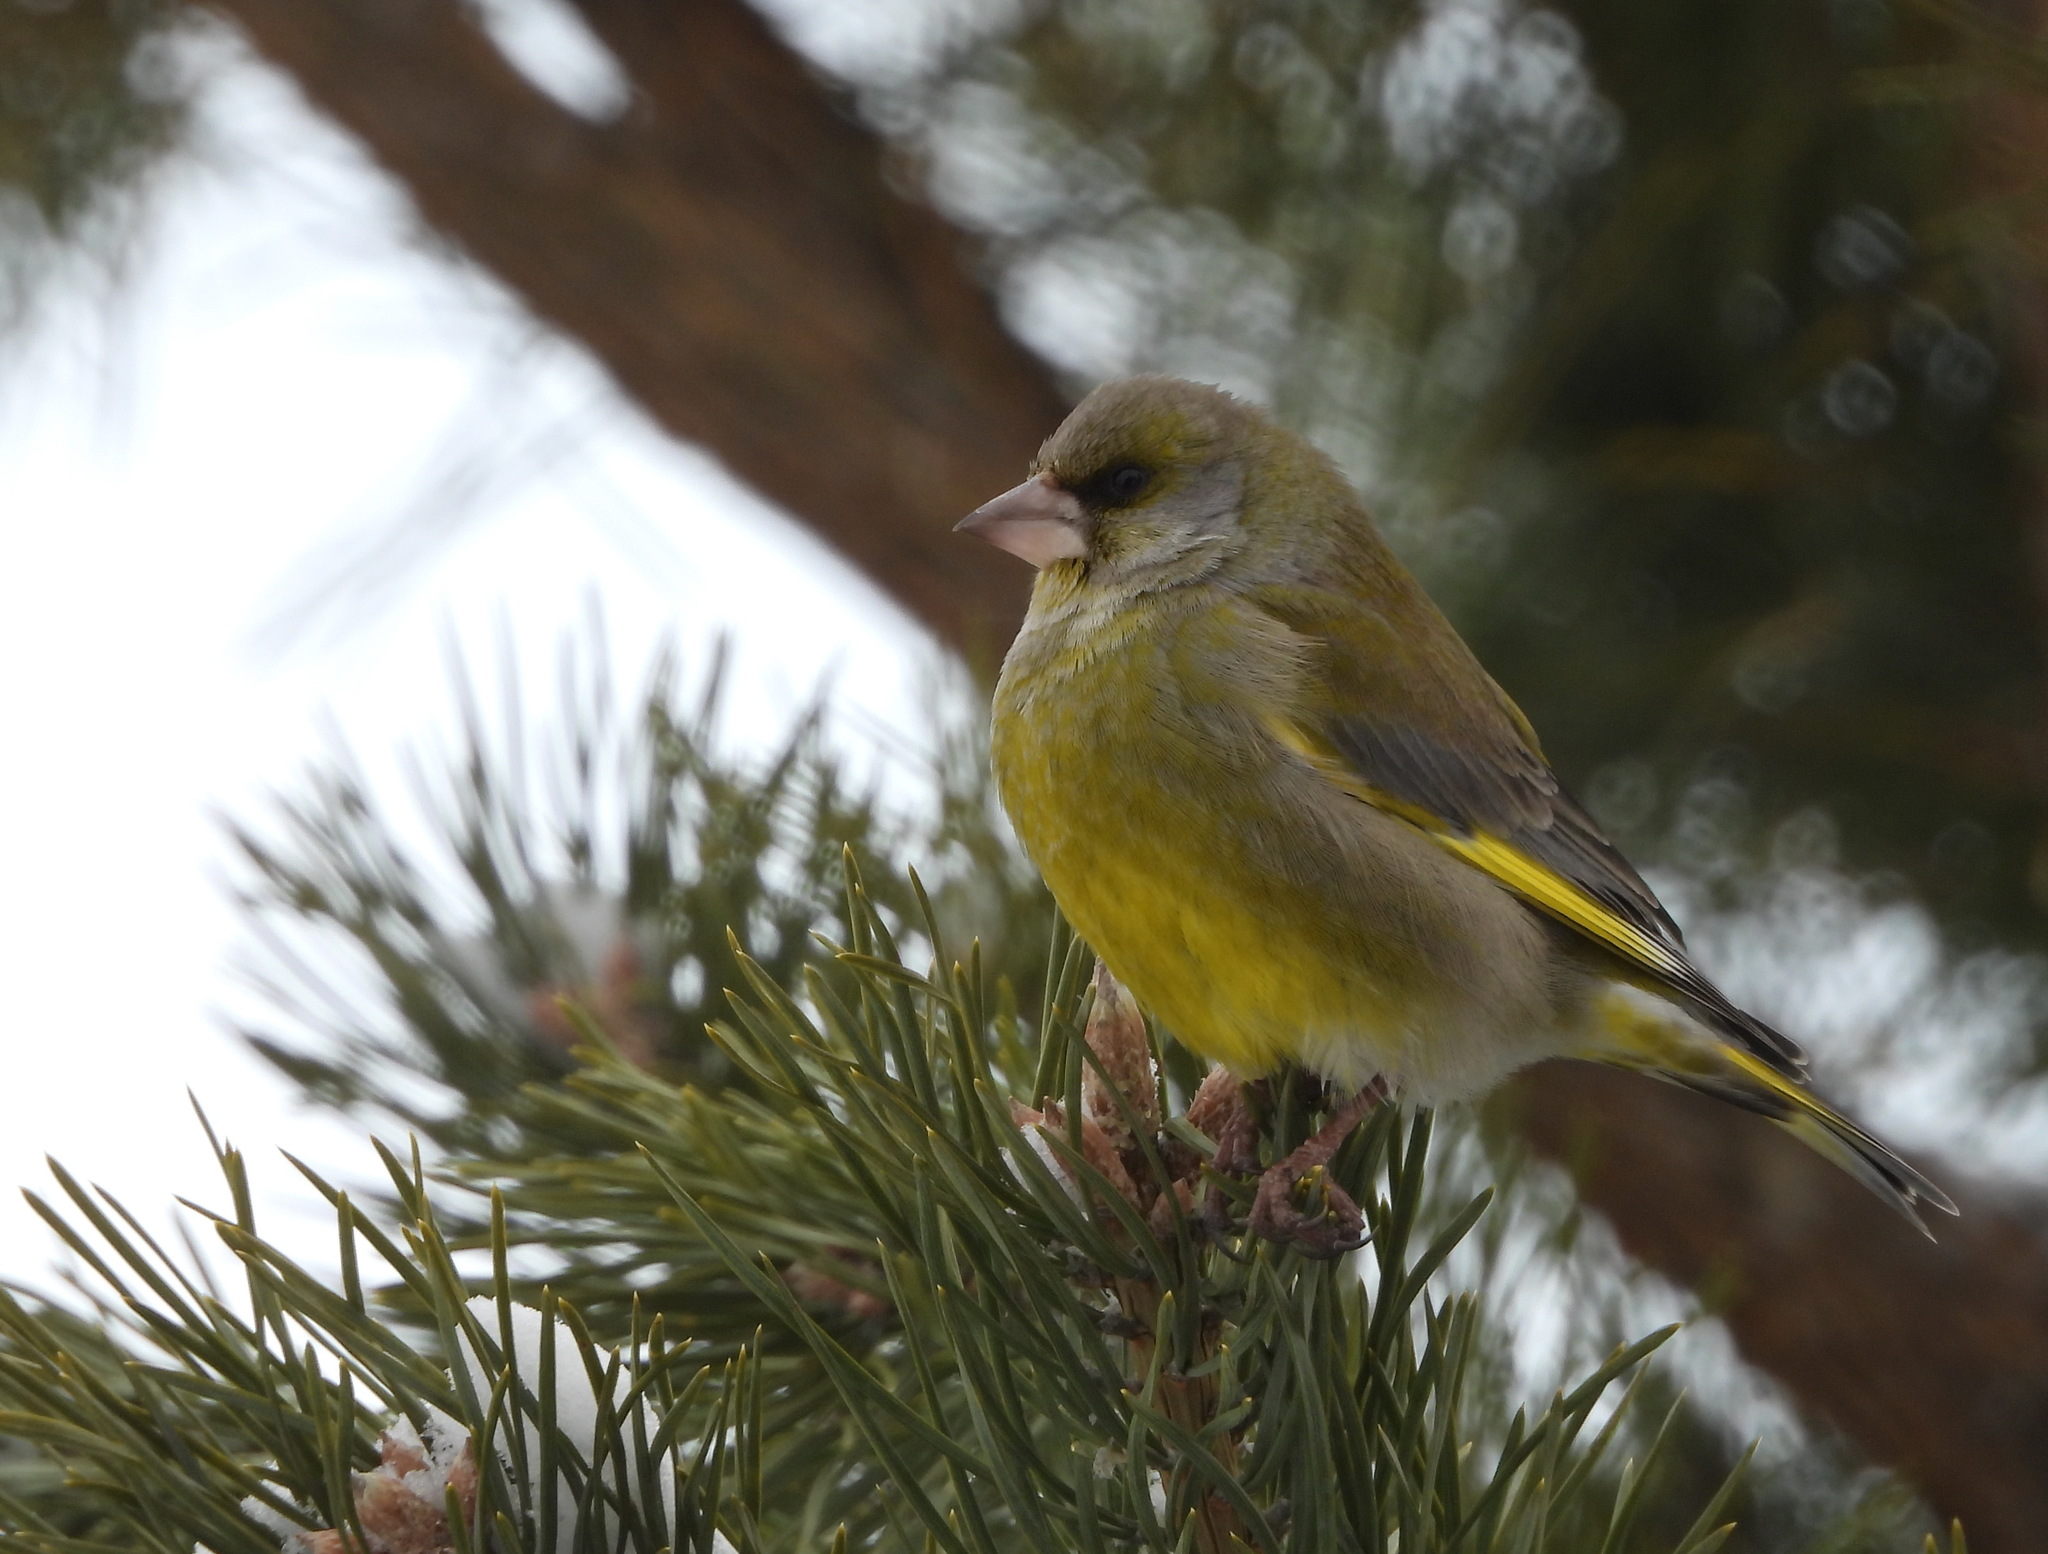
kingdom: Plantae
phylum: Tracheophyta
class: Liliopsida
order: Poales
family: Poaceae
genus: Chloris
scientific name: Chloris chloris
